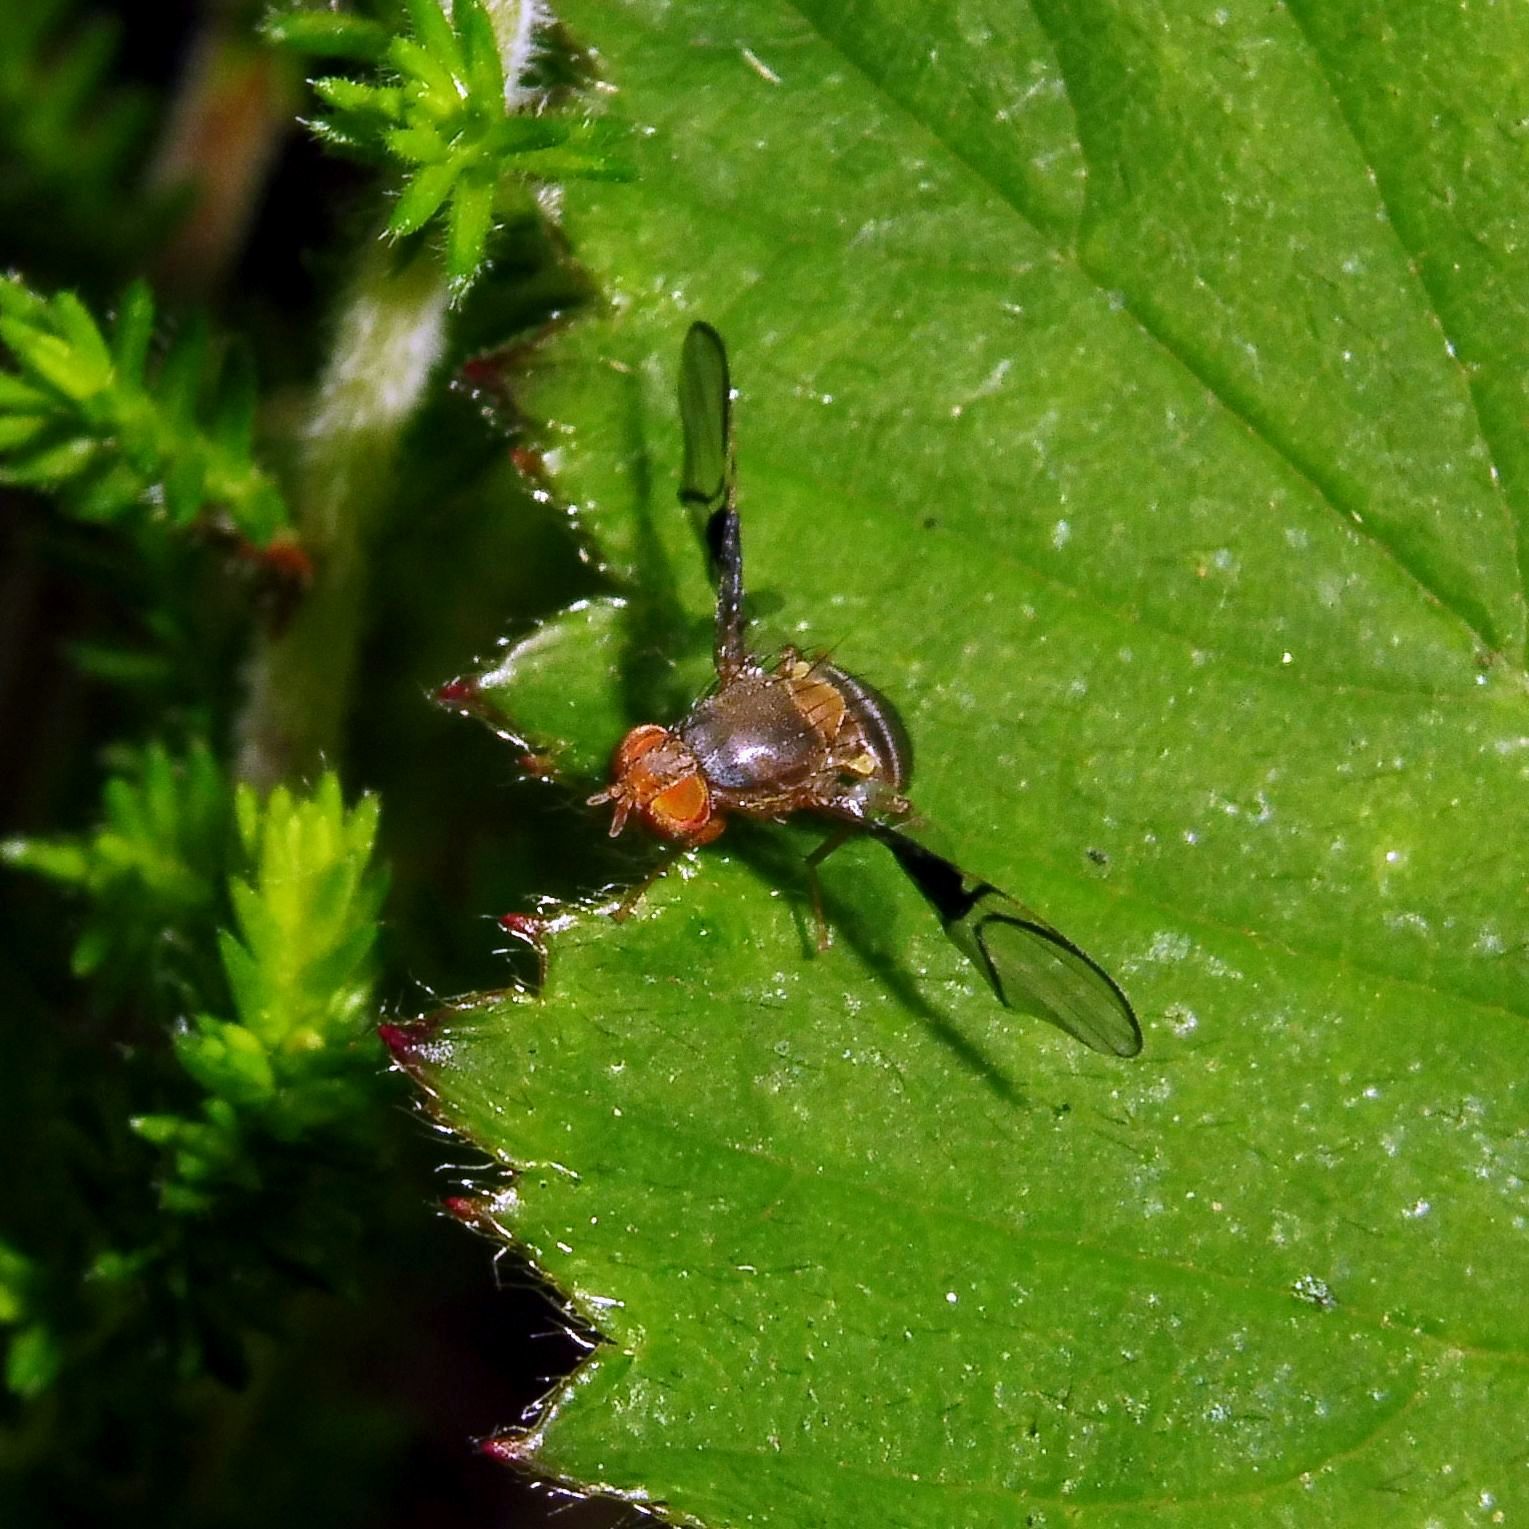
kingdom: Animalia
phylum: Arthropoda
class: Insecta
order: Diptera
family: Tephritidae
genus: Anomoia
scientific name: Anomoia purmunda
